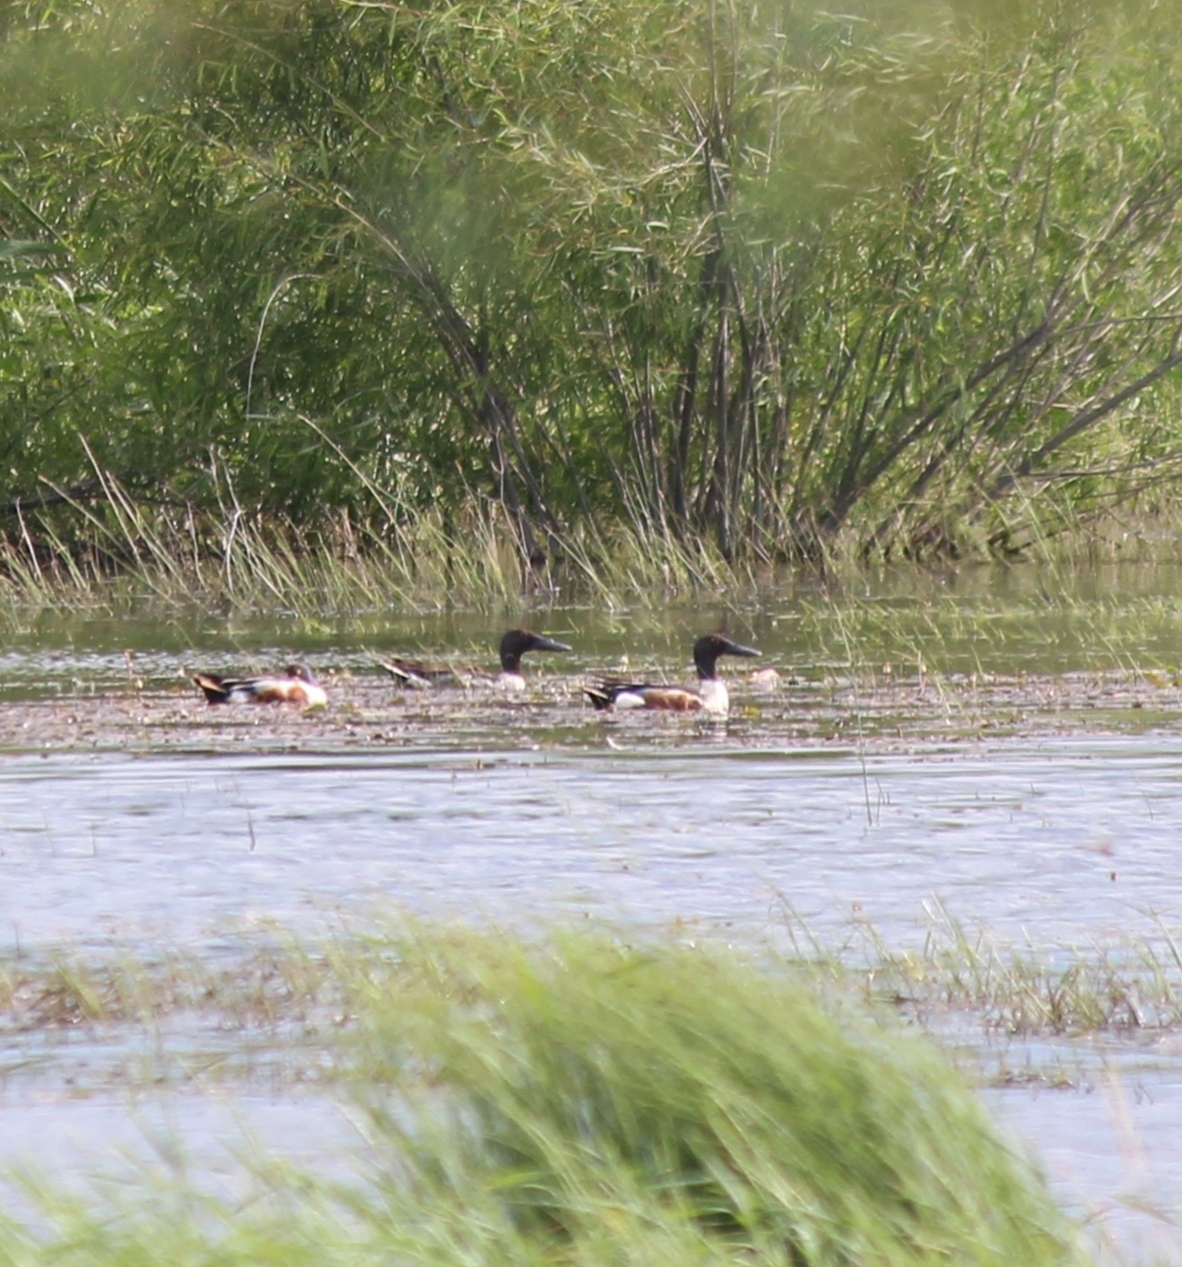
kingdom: Animalia
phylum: Chordata
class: Aves
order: Anseriformes
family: Anatidae
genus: Spatula
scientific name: Spatula clypeata
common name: Northern shoveler
